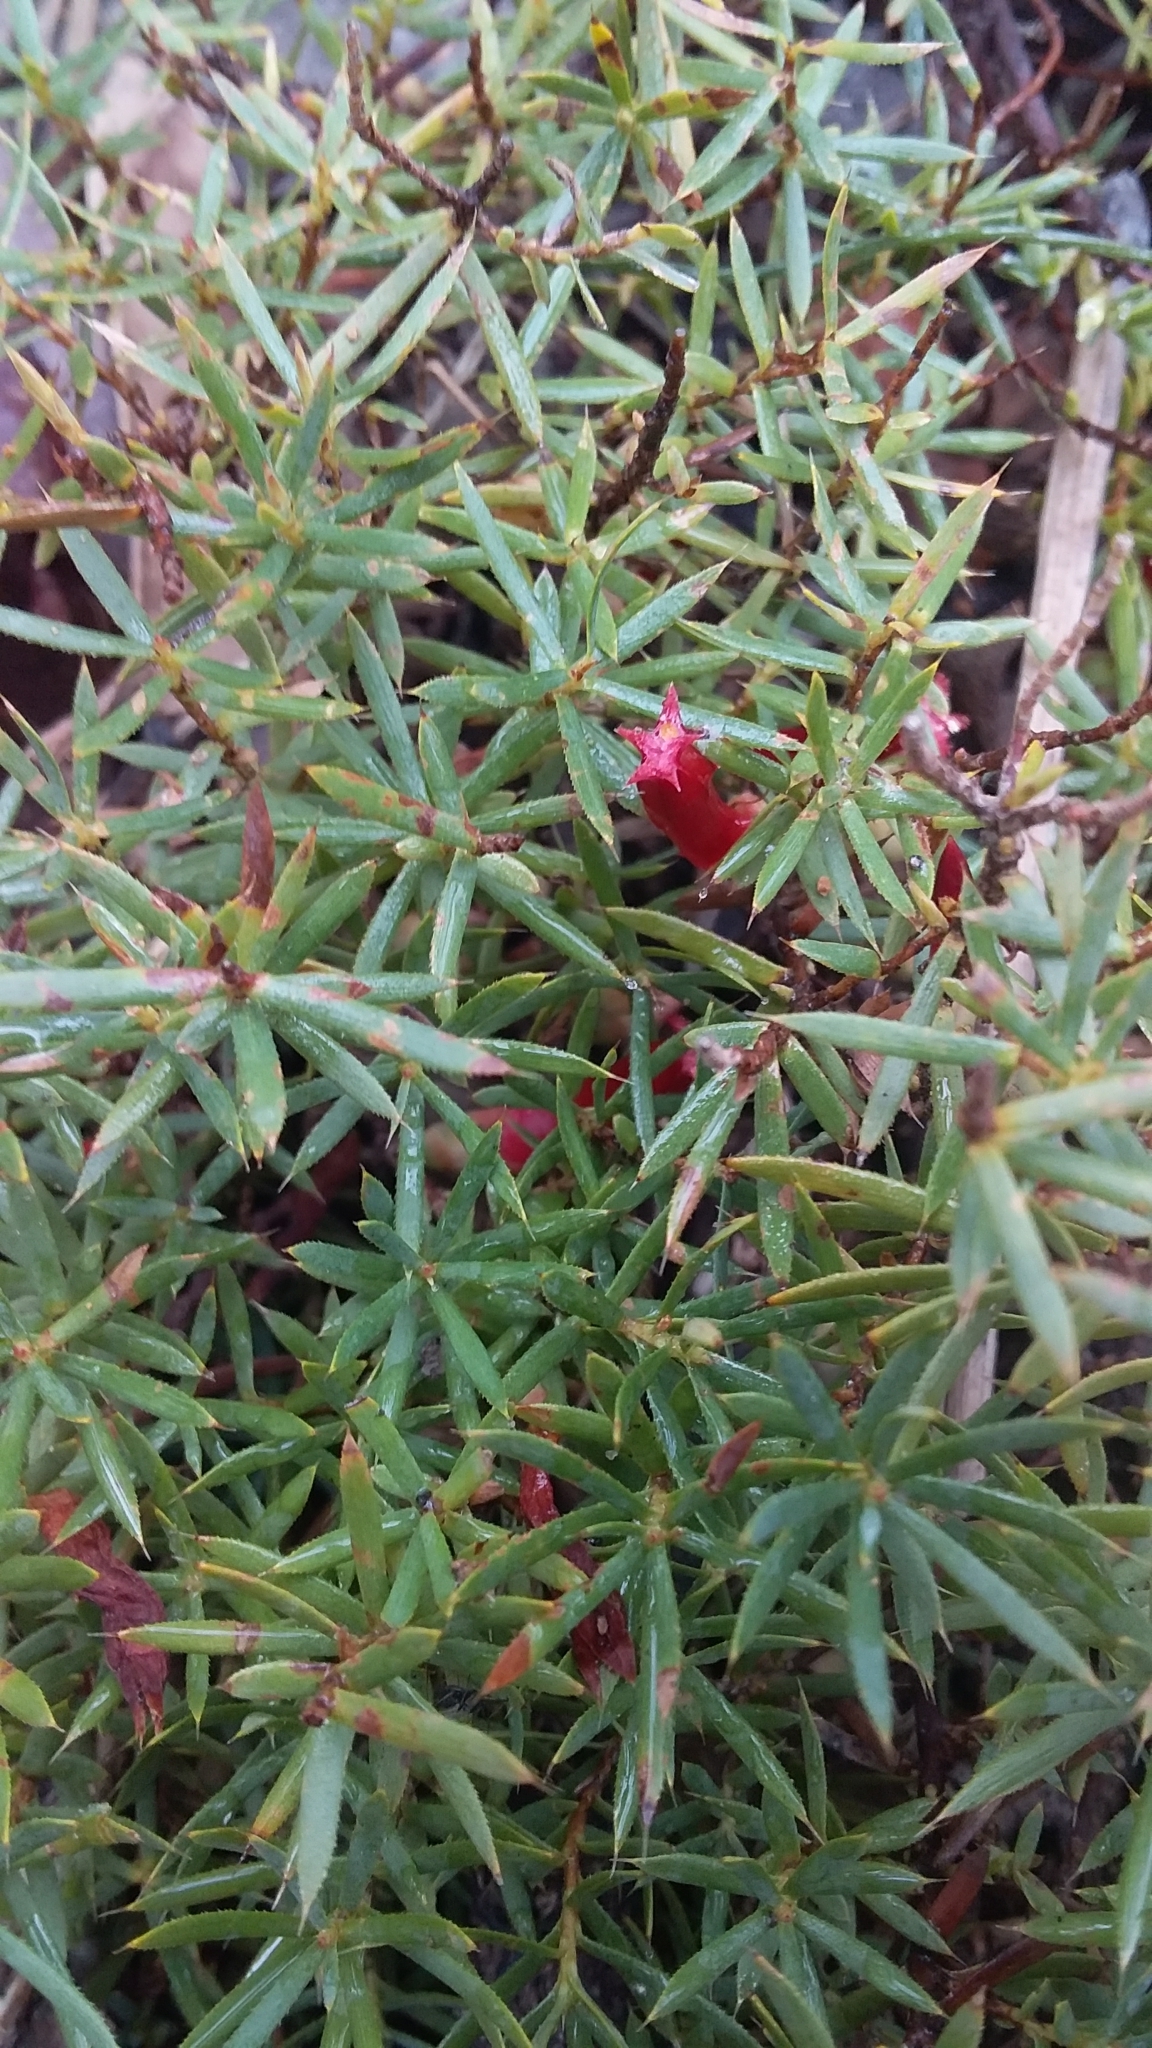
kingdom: Plantae
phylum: Tracheophyta
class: Magnoliopsida
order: Ericales
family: Ericaceae
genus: Styphelia
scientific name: Styphelia humifusa
